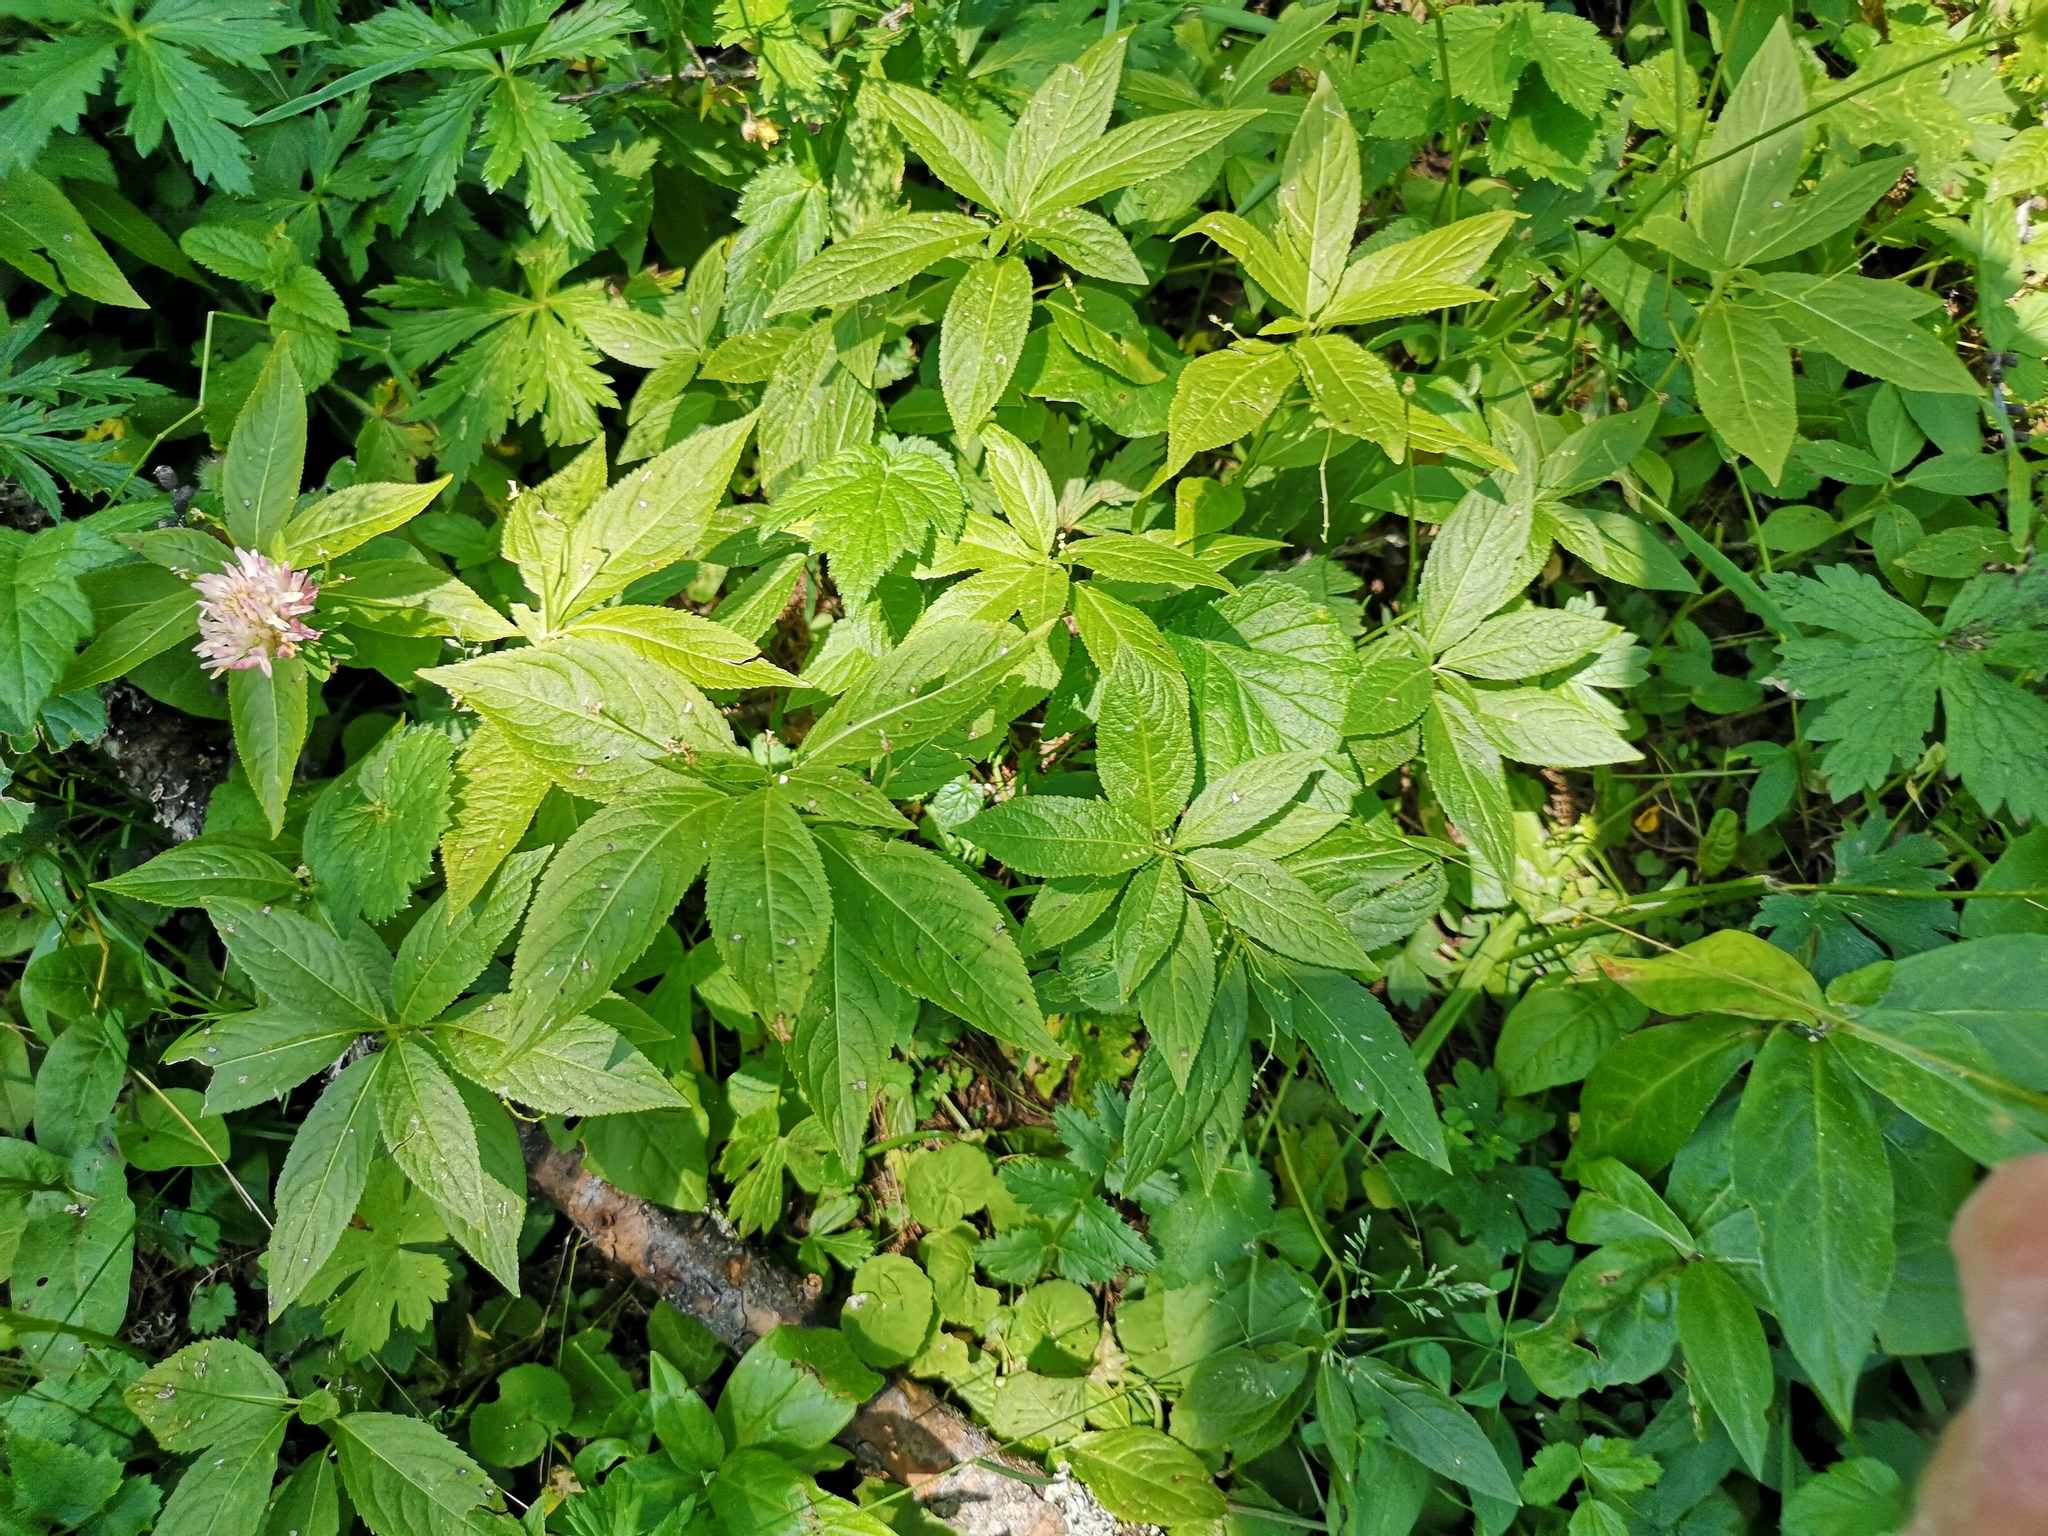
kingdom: Plantae
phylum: Tracheophyta
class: Magnoliopsida
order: Malpighiales
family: Euphorbiaceae
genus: Mercurialis
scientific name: Mercurialis perennis
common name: Dog mercury
